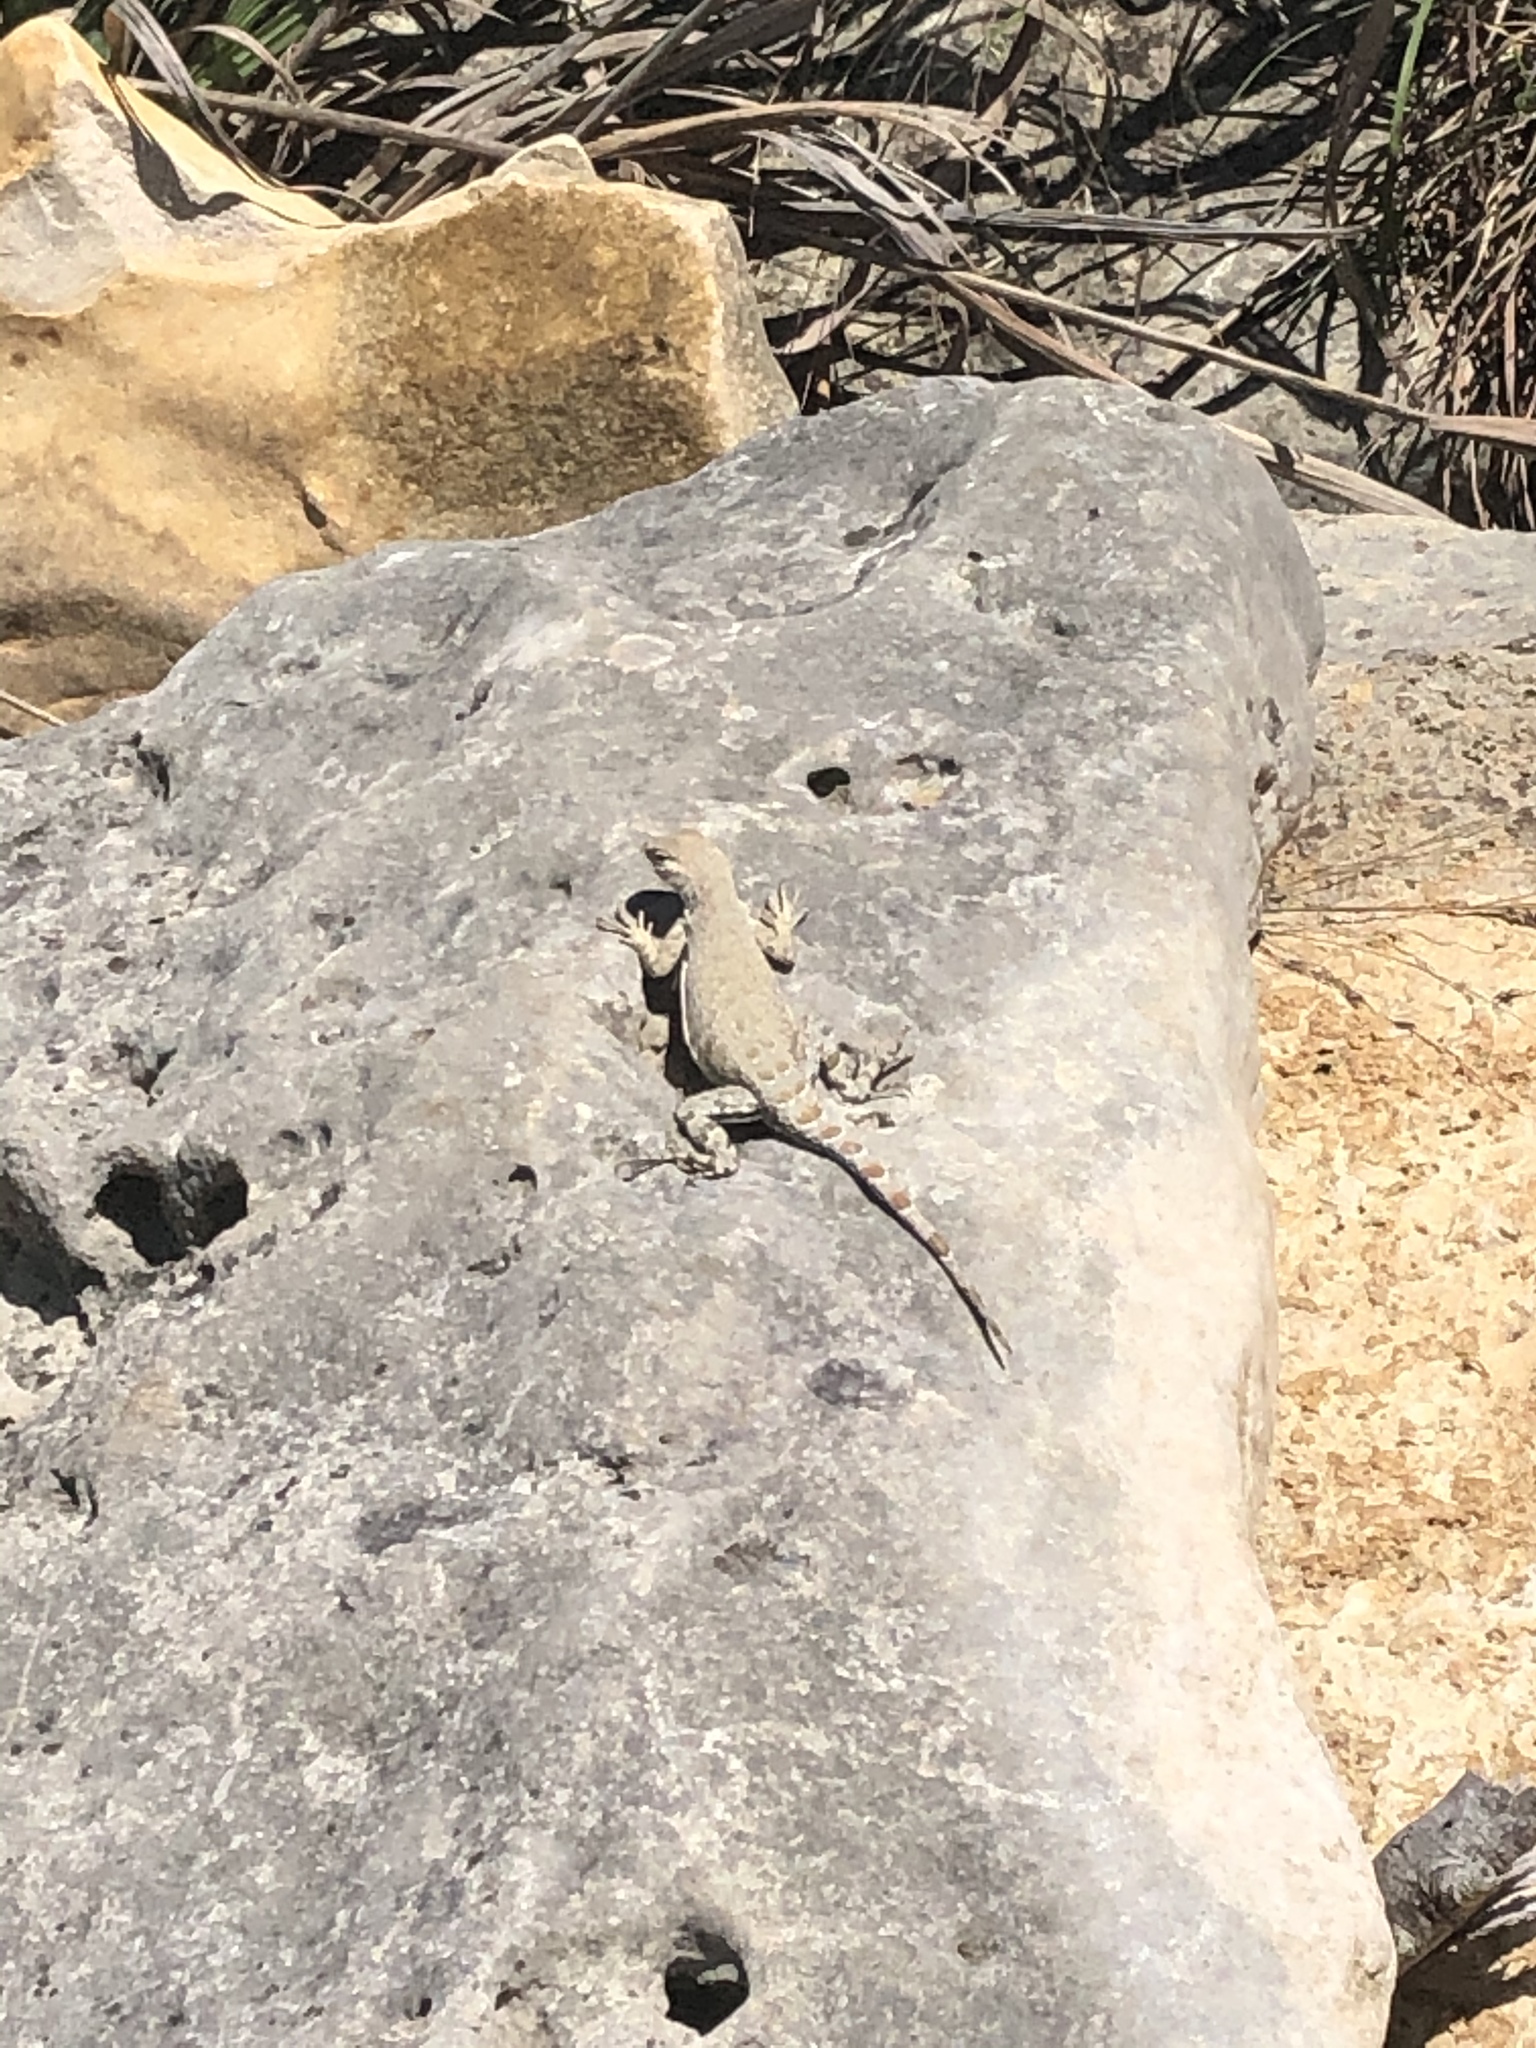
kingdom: Animalia
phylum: Chordata
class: Squamata
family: Phrynosomatidae
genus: Cophosaurus
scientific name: Cophosaurus texanus
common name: Greater earless lizard
